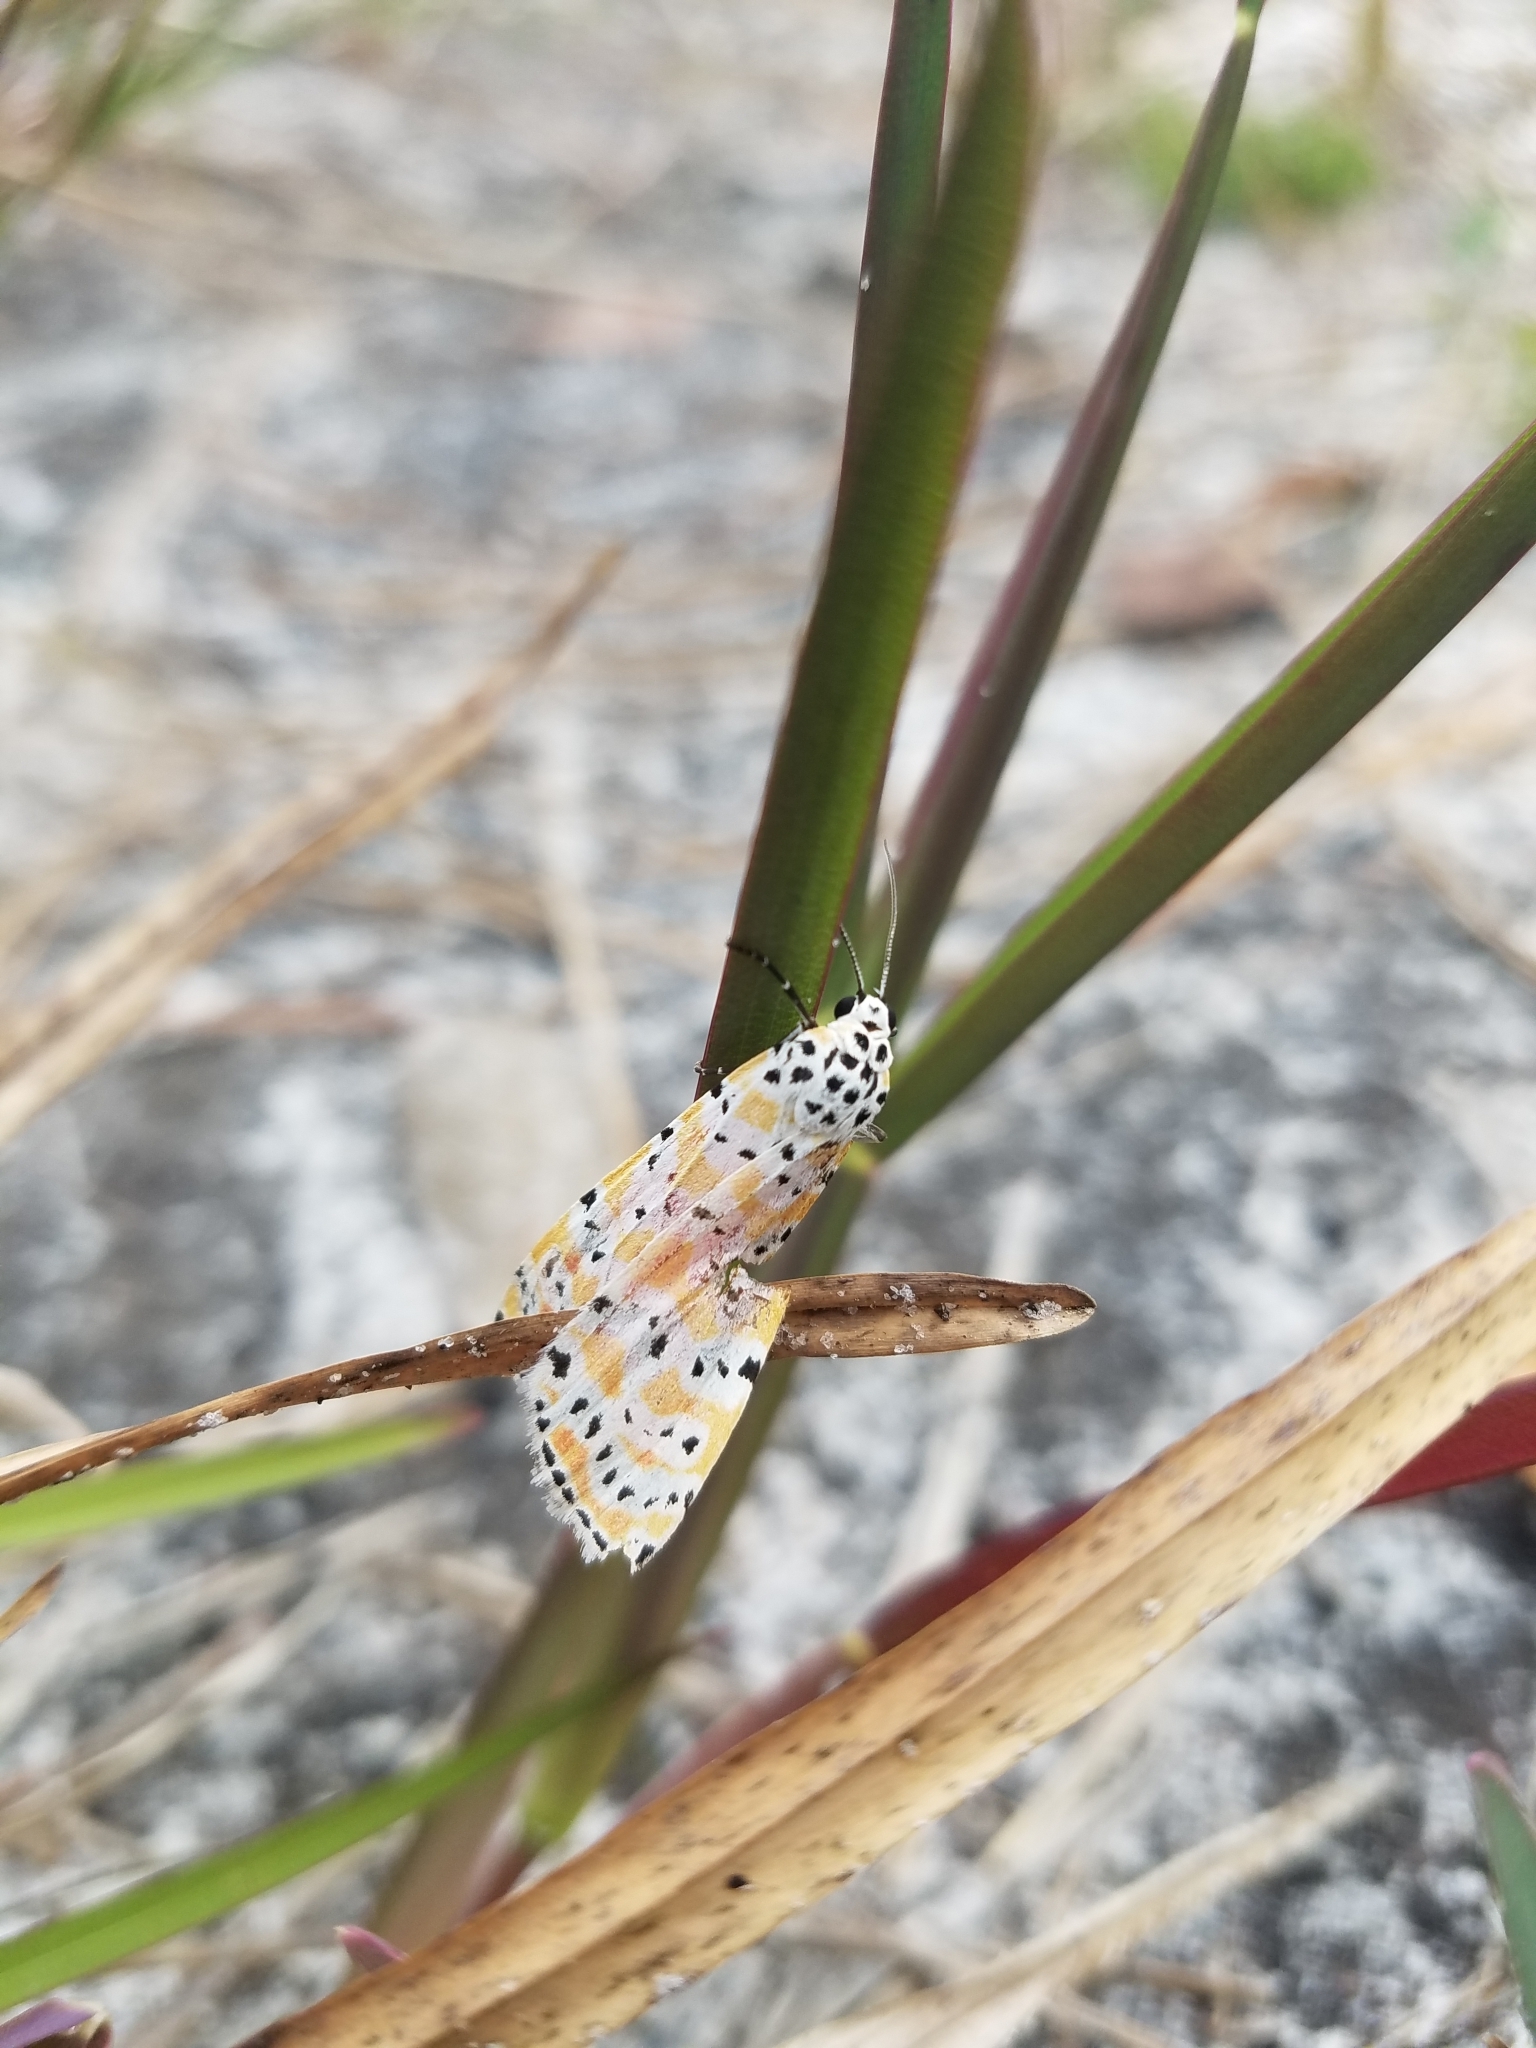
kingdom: Animalia
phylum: Arthropoda
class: Insecta
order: Lepidoptera
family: Erebidae
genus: Utetheisa
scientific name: Utetheisa ornatrix
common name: Beautiful utetheisa
